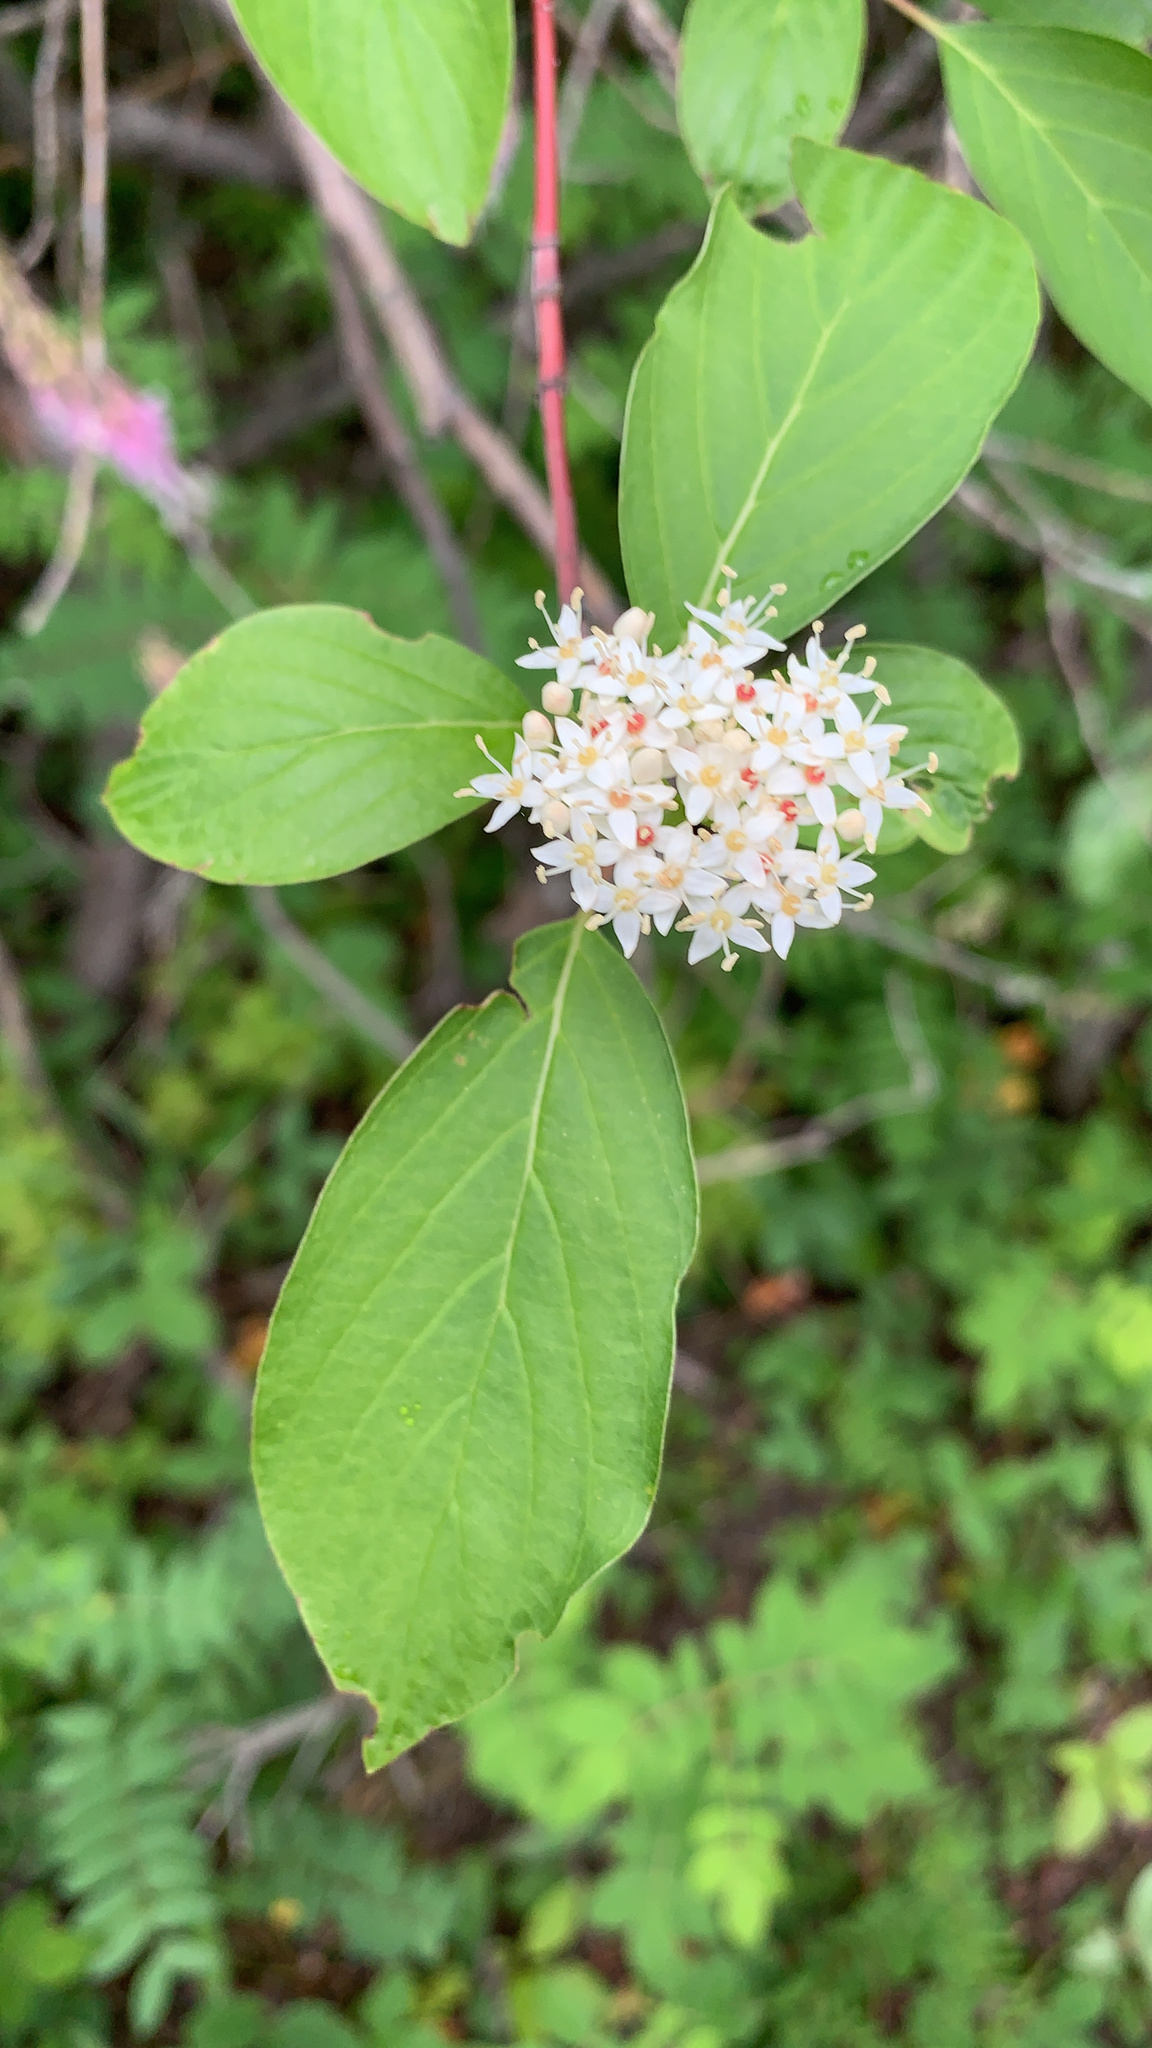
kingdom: Plantae
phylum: Tracheophyta
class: Magnoliopsida
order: Cornales
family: Cornaceae
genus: Cornus
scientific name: Cornus sericea
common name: Red-osier dogwood
